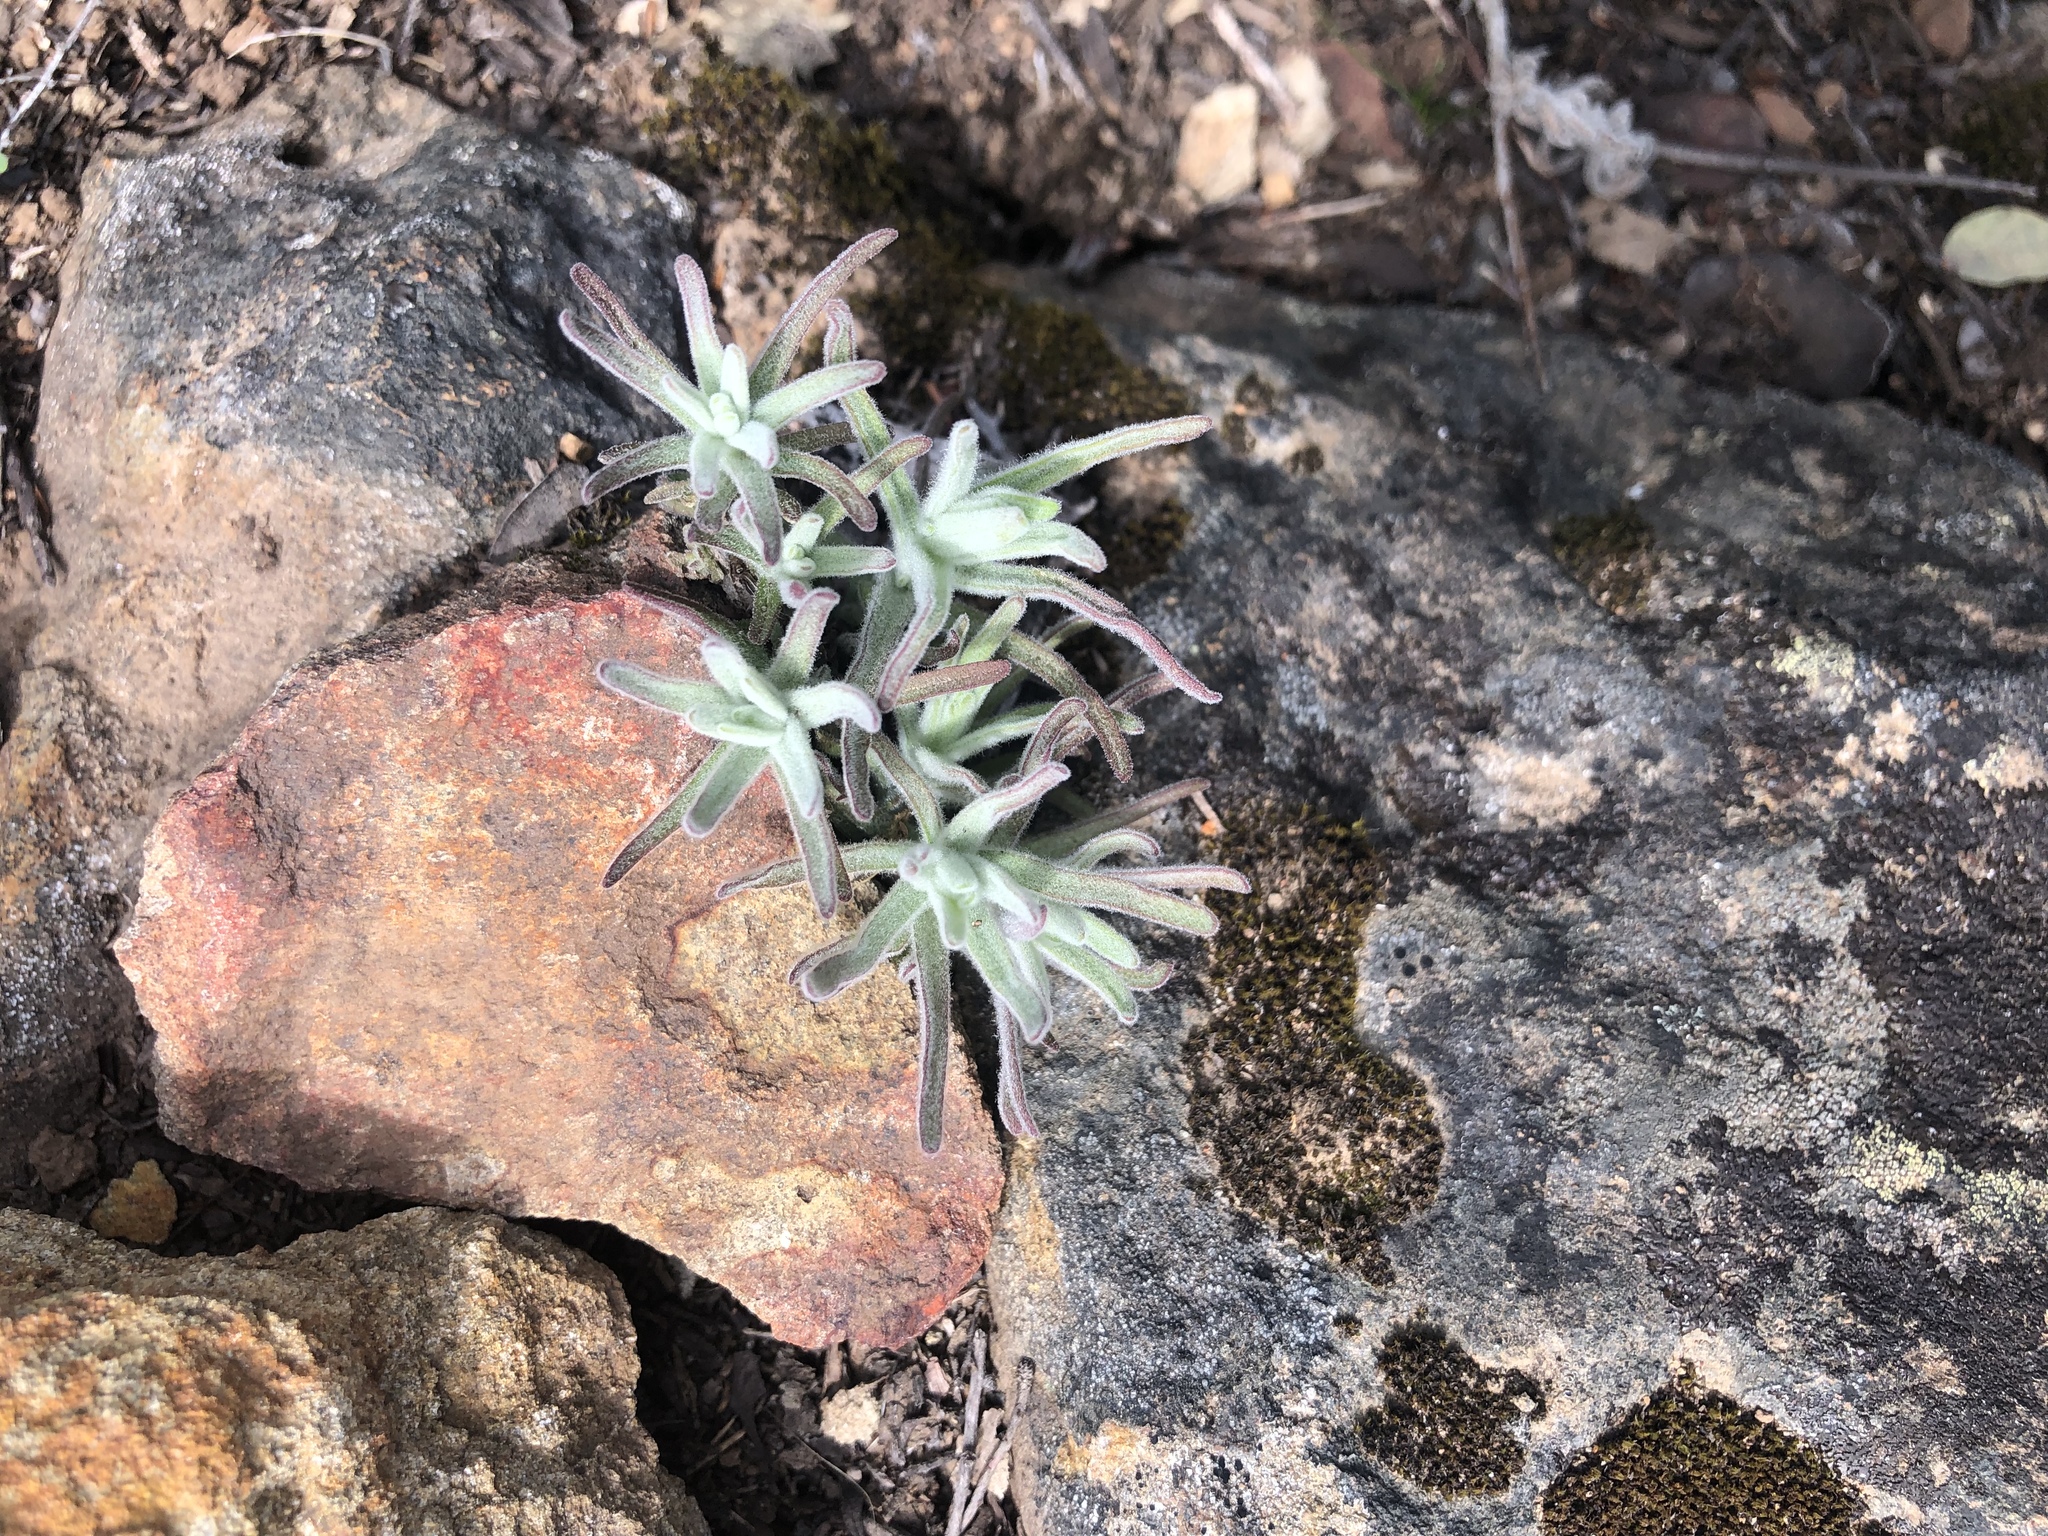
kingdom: Plantae
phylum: Tracheophyta
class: Magnoliopsida
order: Lamiales
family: Orobanchaceae
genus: Castilleja
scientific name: Castilleja foliolosa
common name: Woolly indian paintbrush
